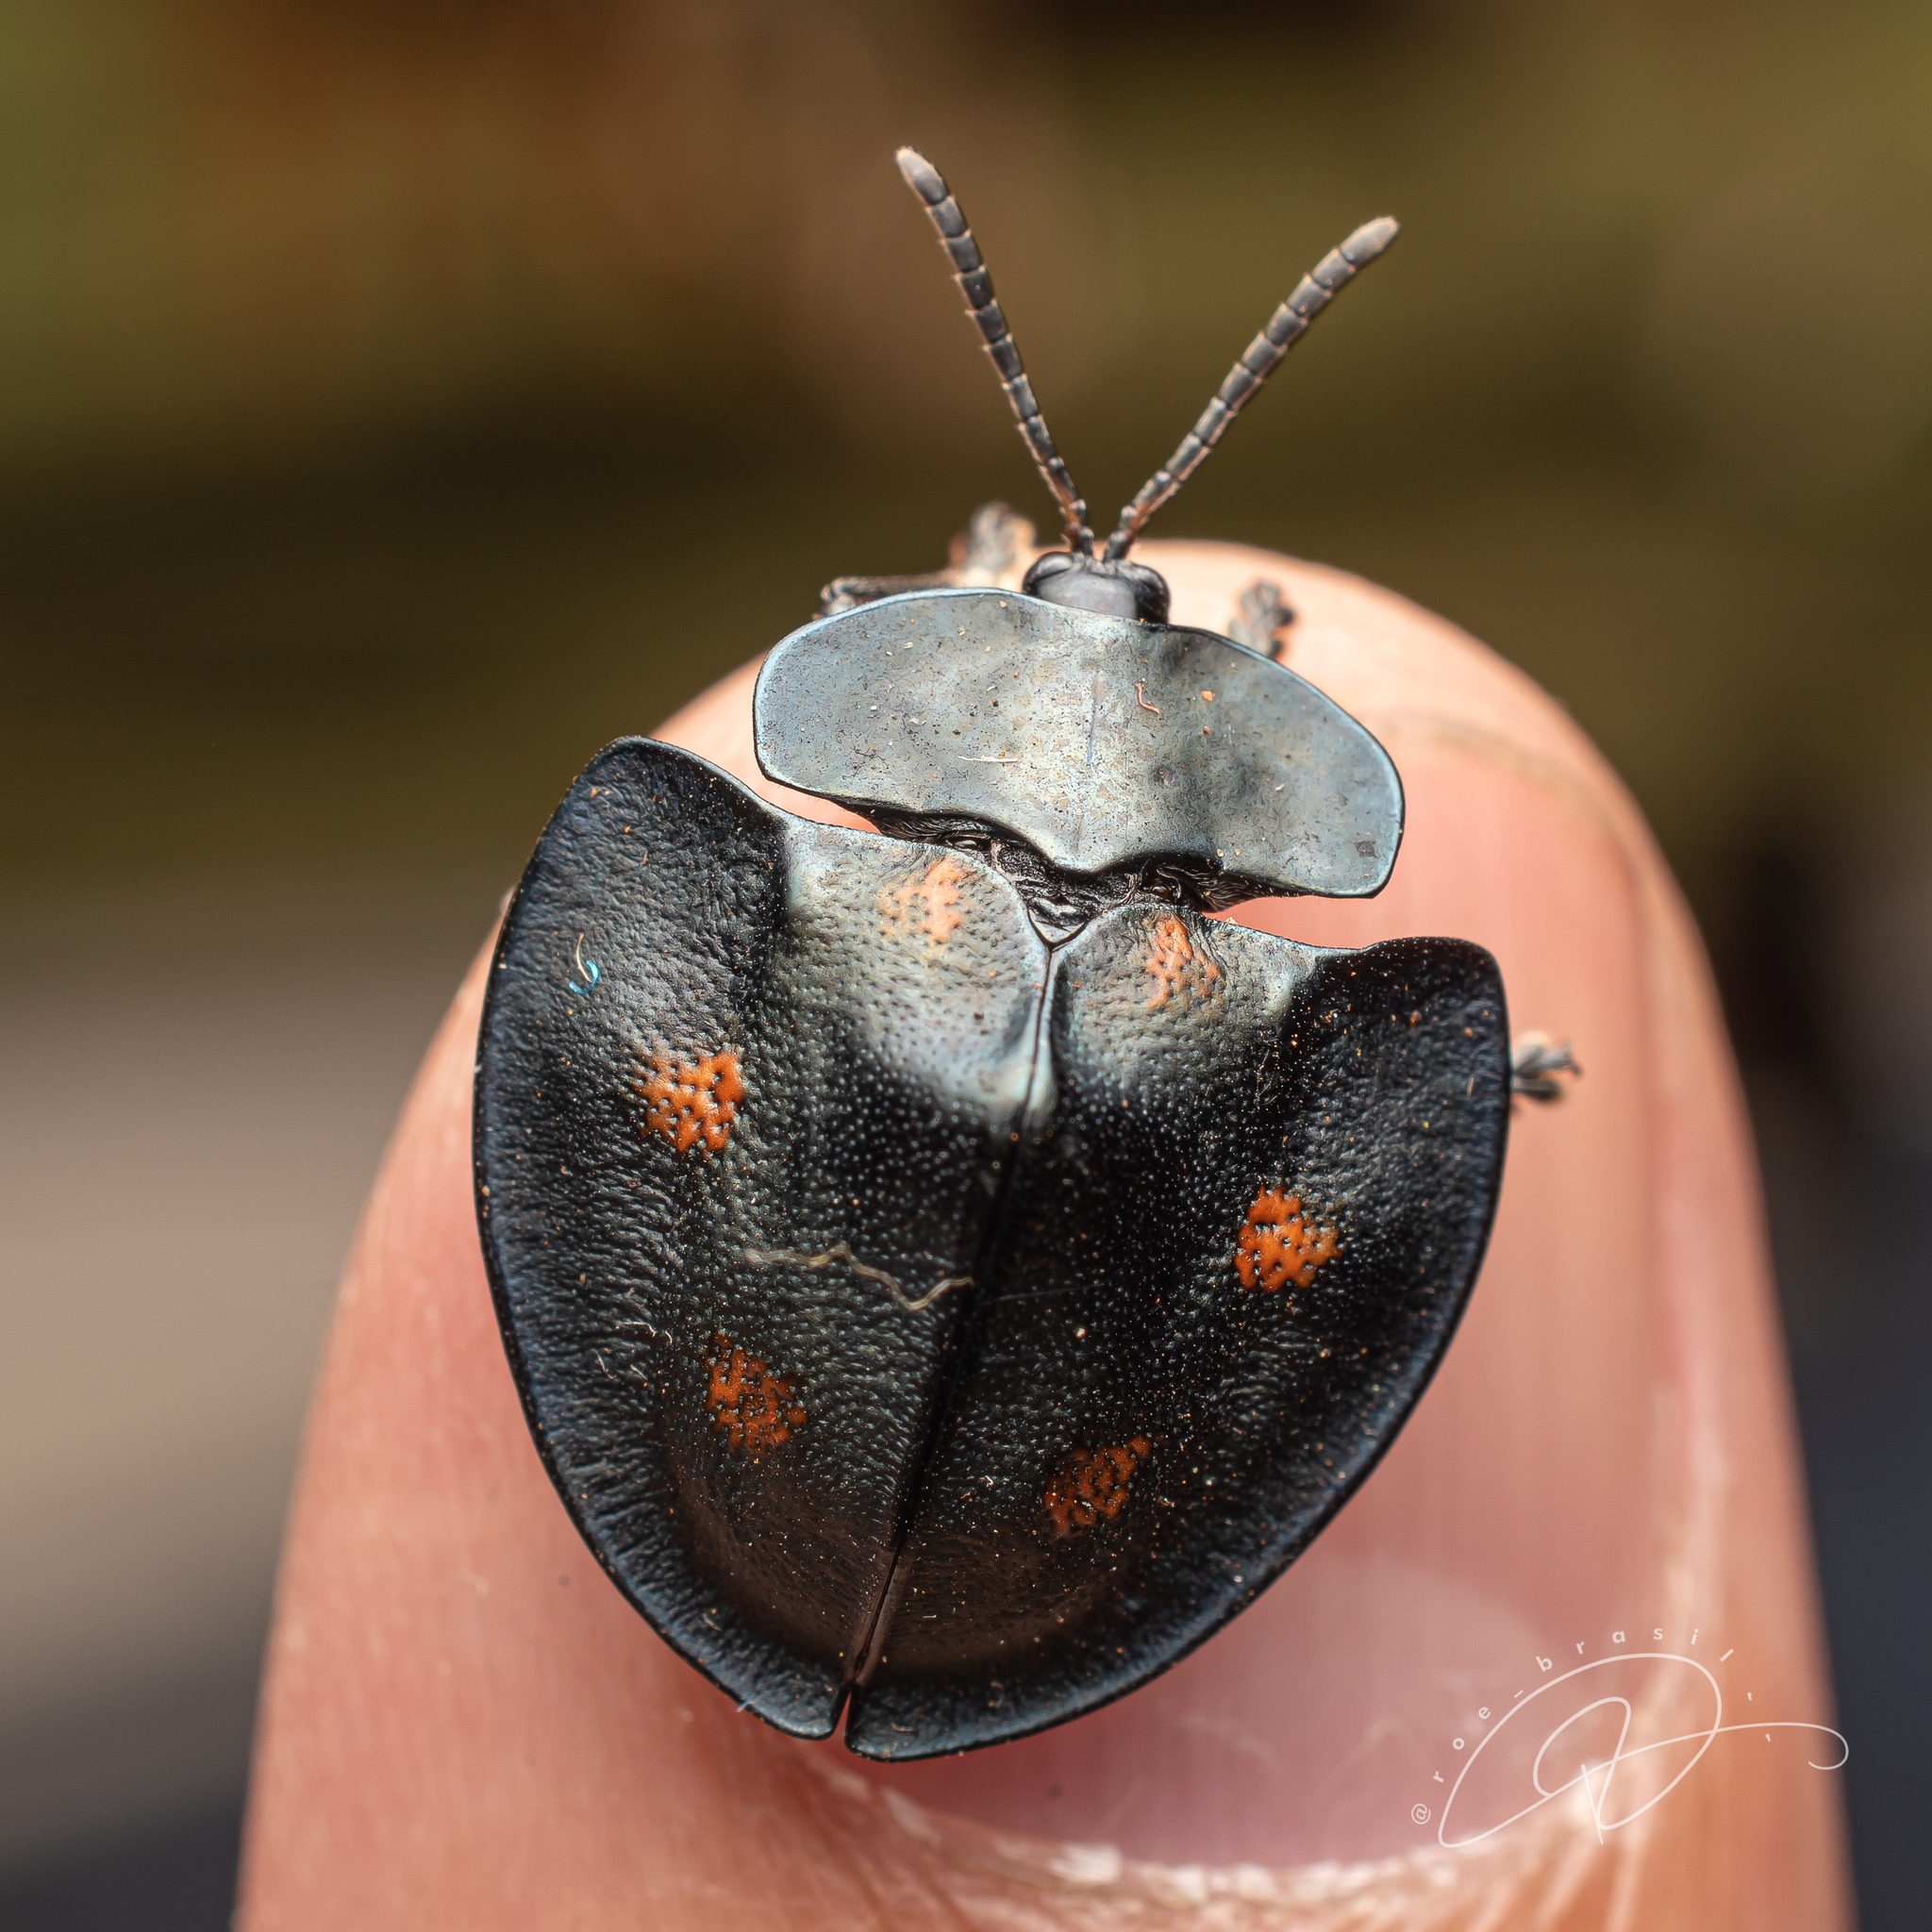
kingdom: Animalia
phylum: Arthropoda
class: Insecta
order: Coleoptera
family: Chrysomelidae
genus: Cyrtonota
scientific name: Cyrtonota sexpustulata
